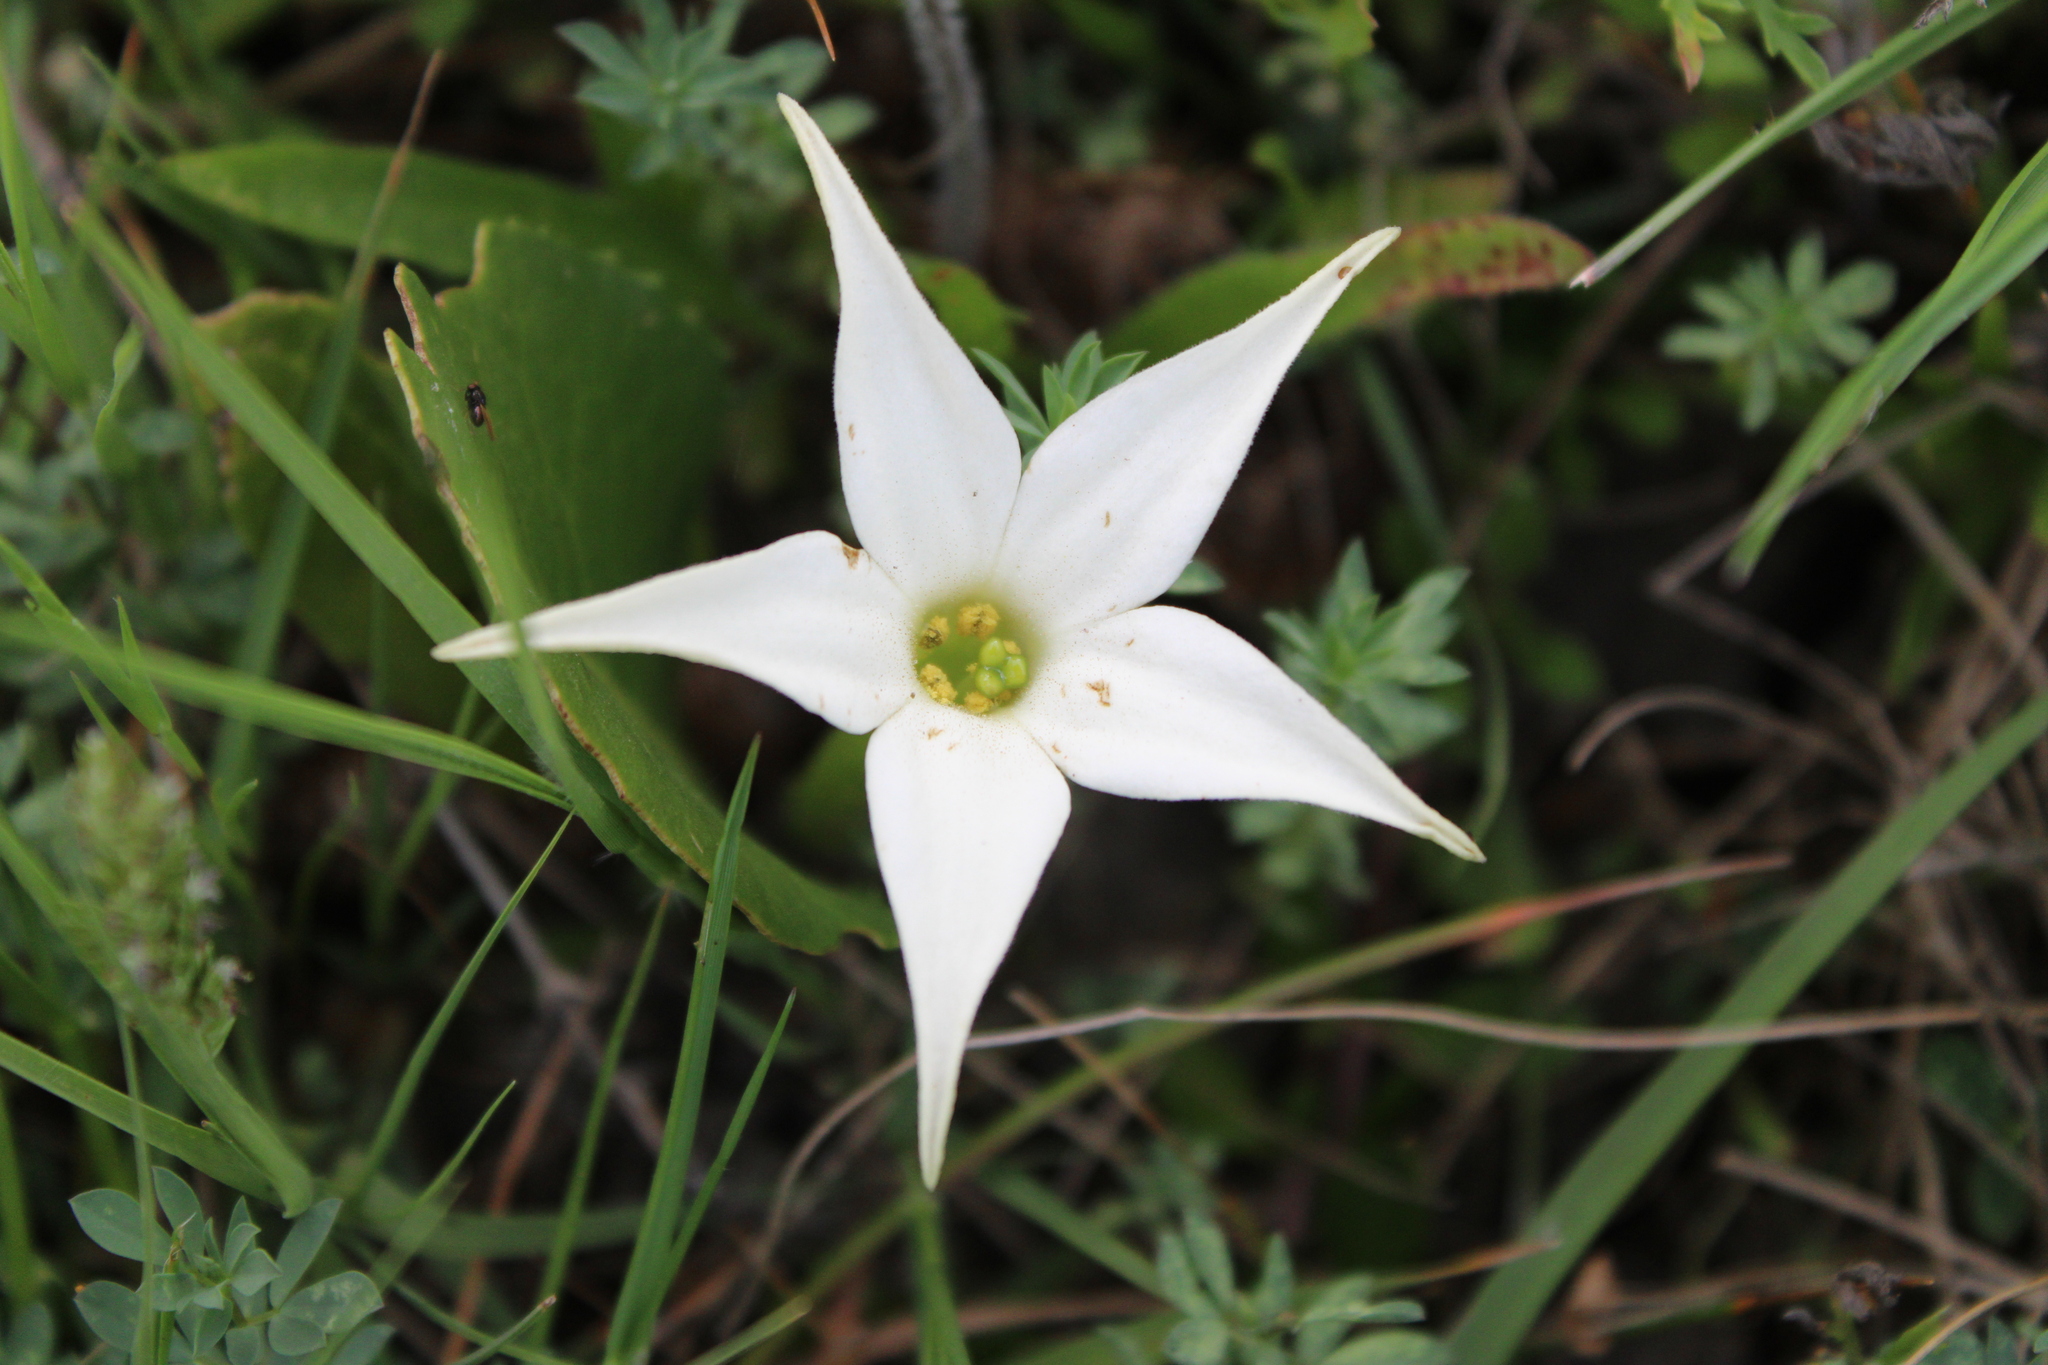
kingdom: Plantae
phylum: Tracheophyta
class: Magnoliopsida
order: Solanales
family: Solanaceae
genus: Jaborosa
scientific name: Jaborosa integrifolia
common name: Springblossom
